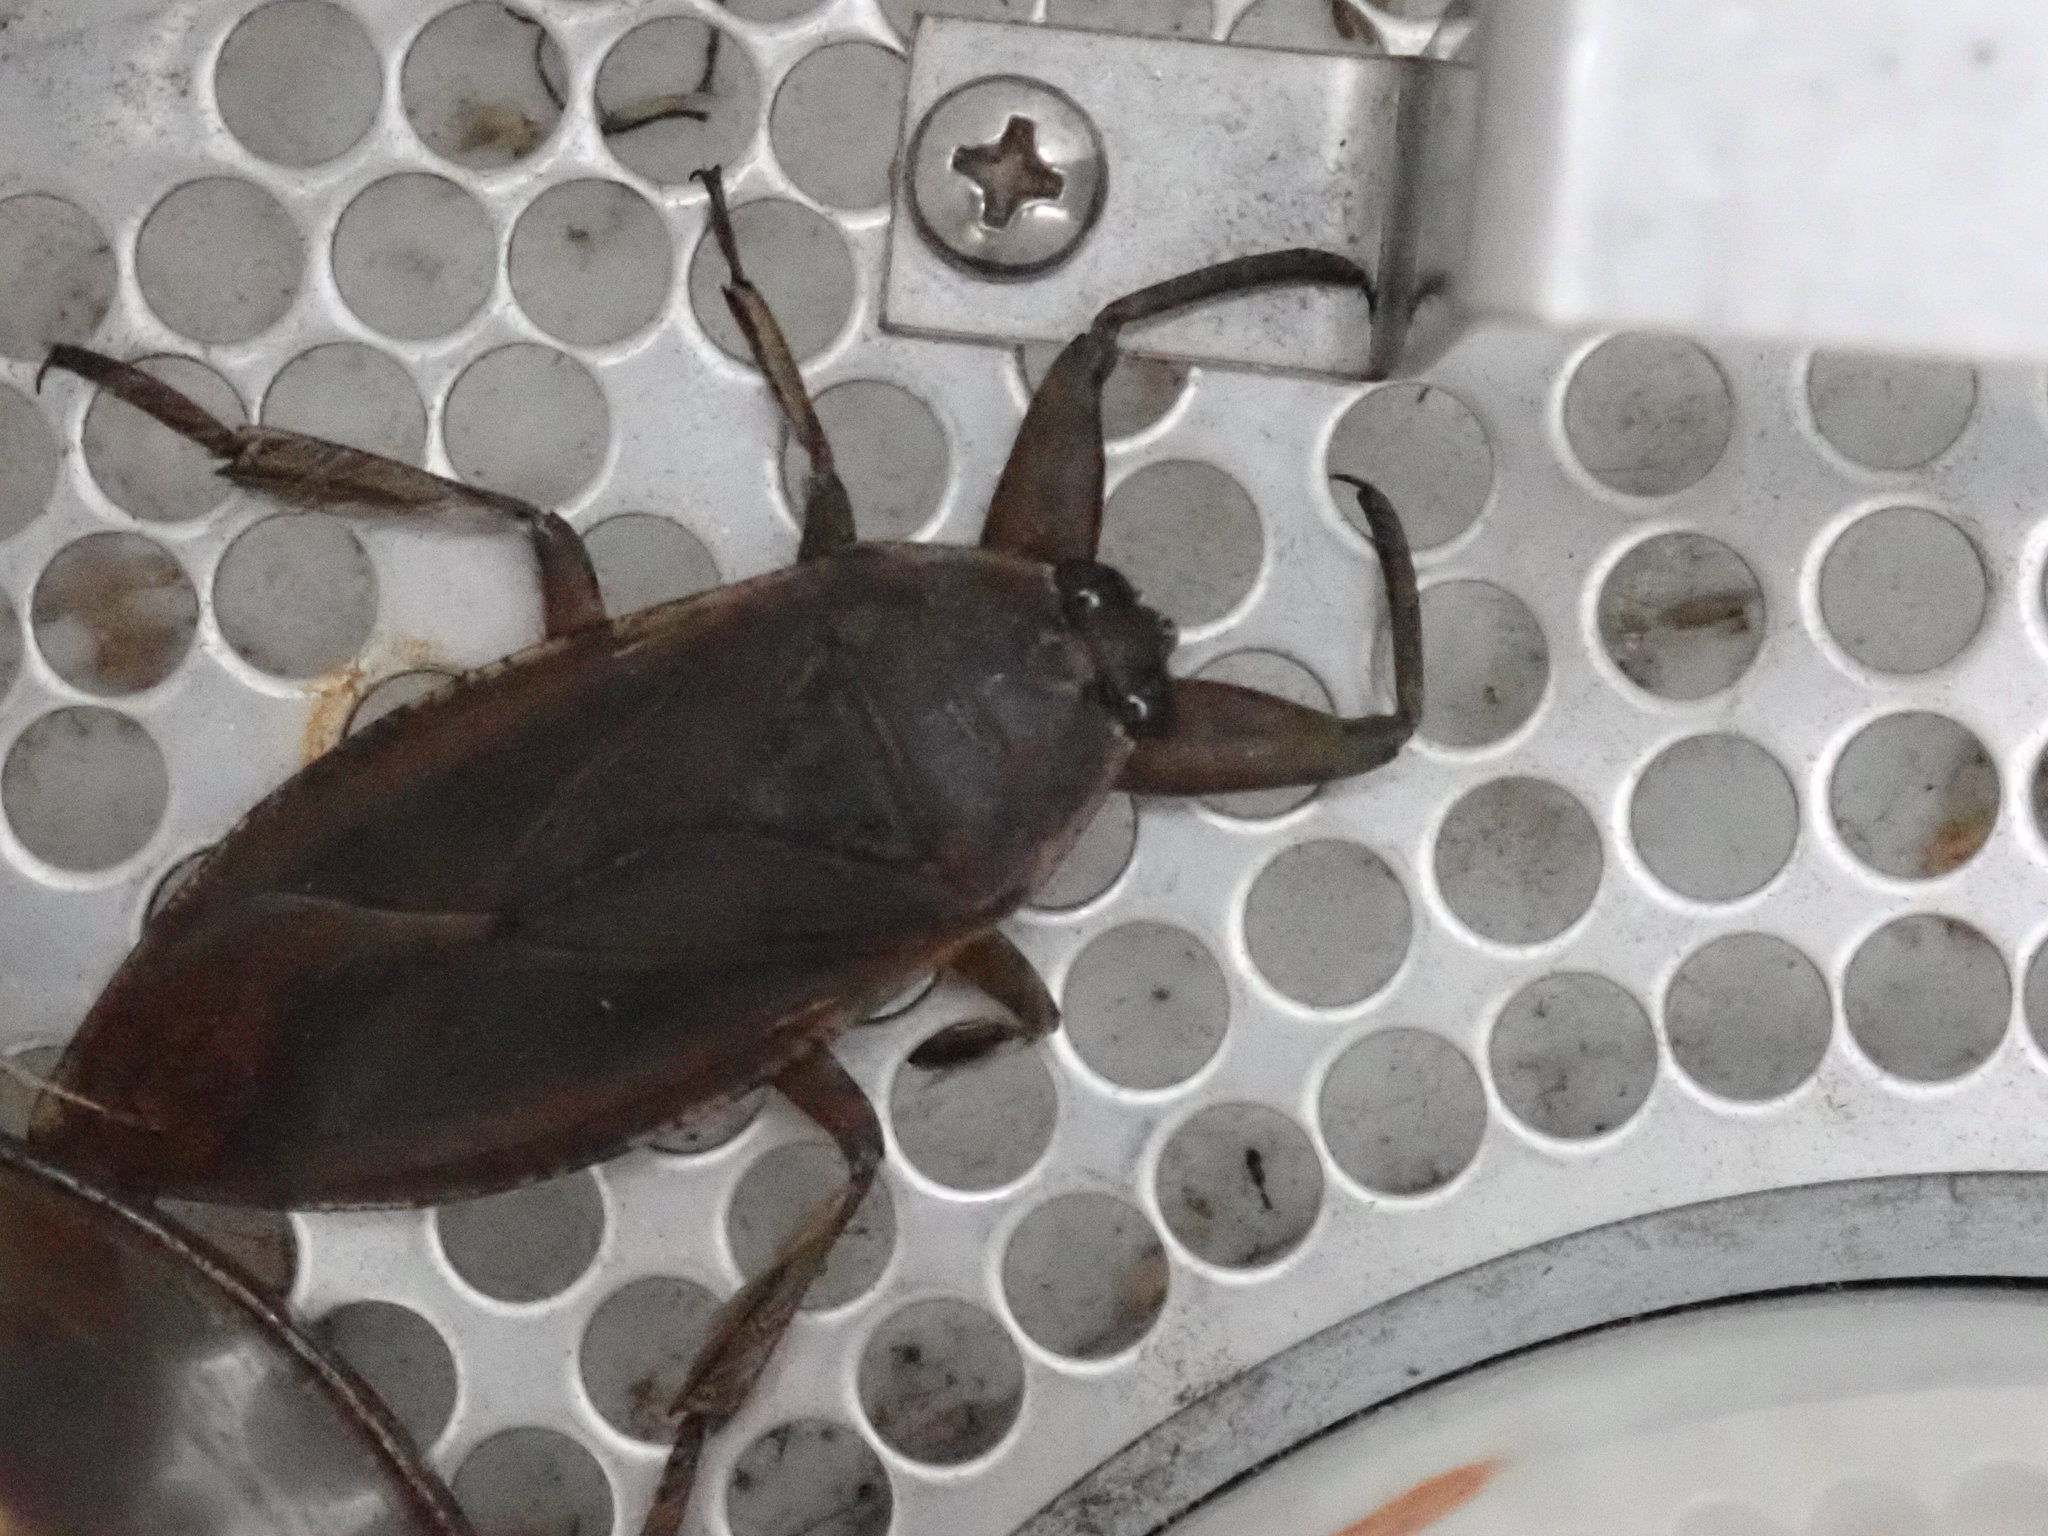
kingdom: Animalia
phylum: Arthropoda
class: Insecta
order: Hemiptera
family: Belostomatidae
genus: Lethocerus
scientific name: Lethocerus americanus
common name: Giant water bug
